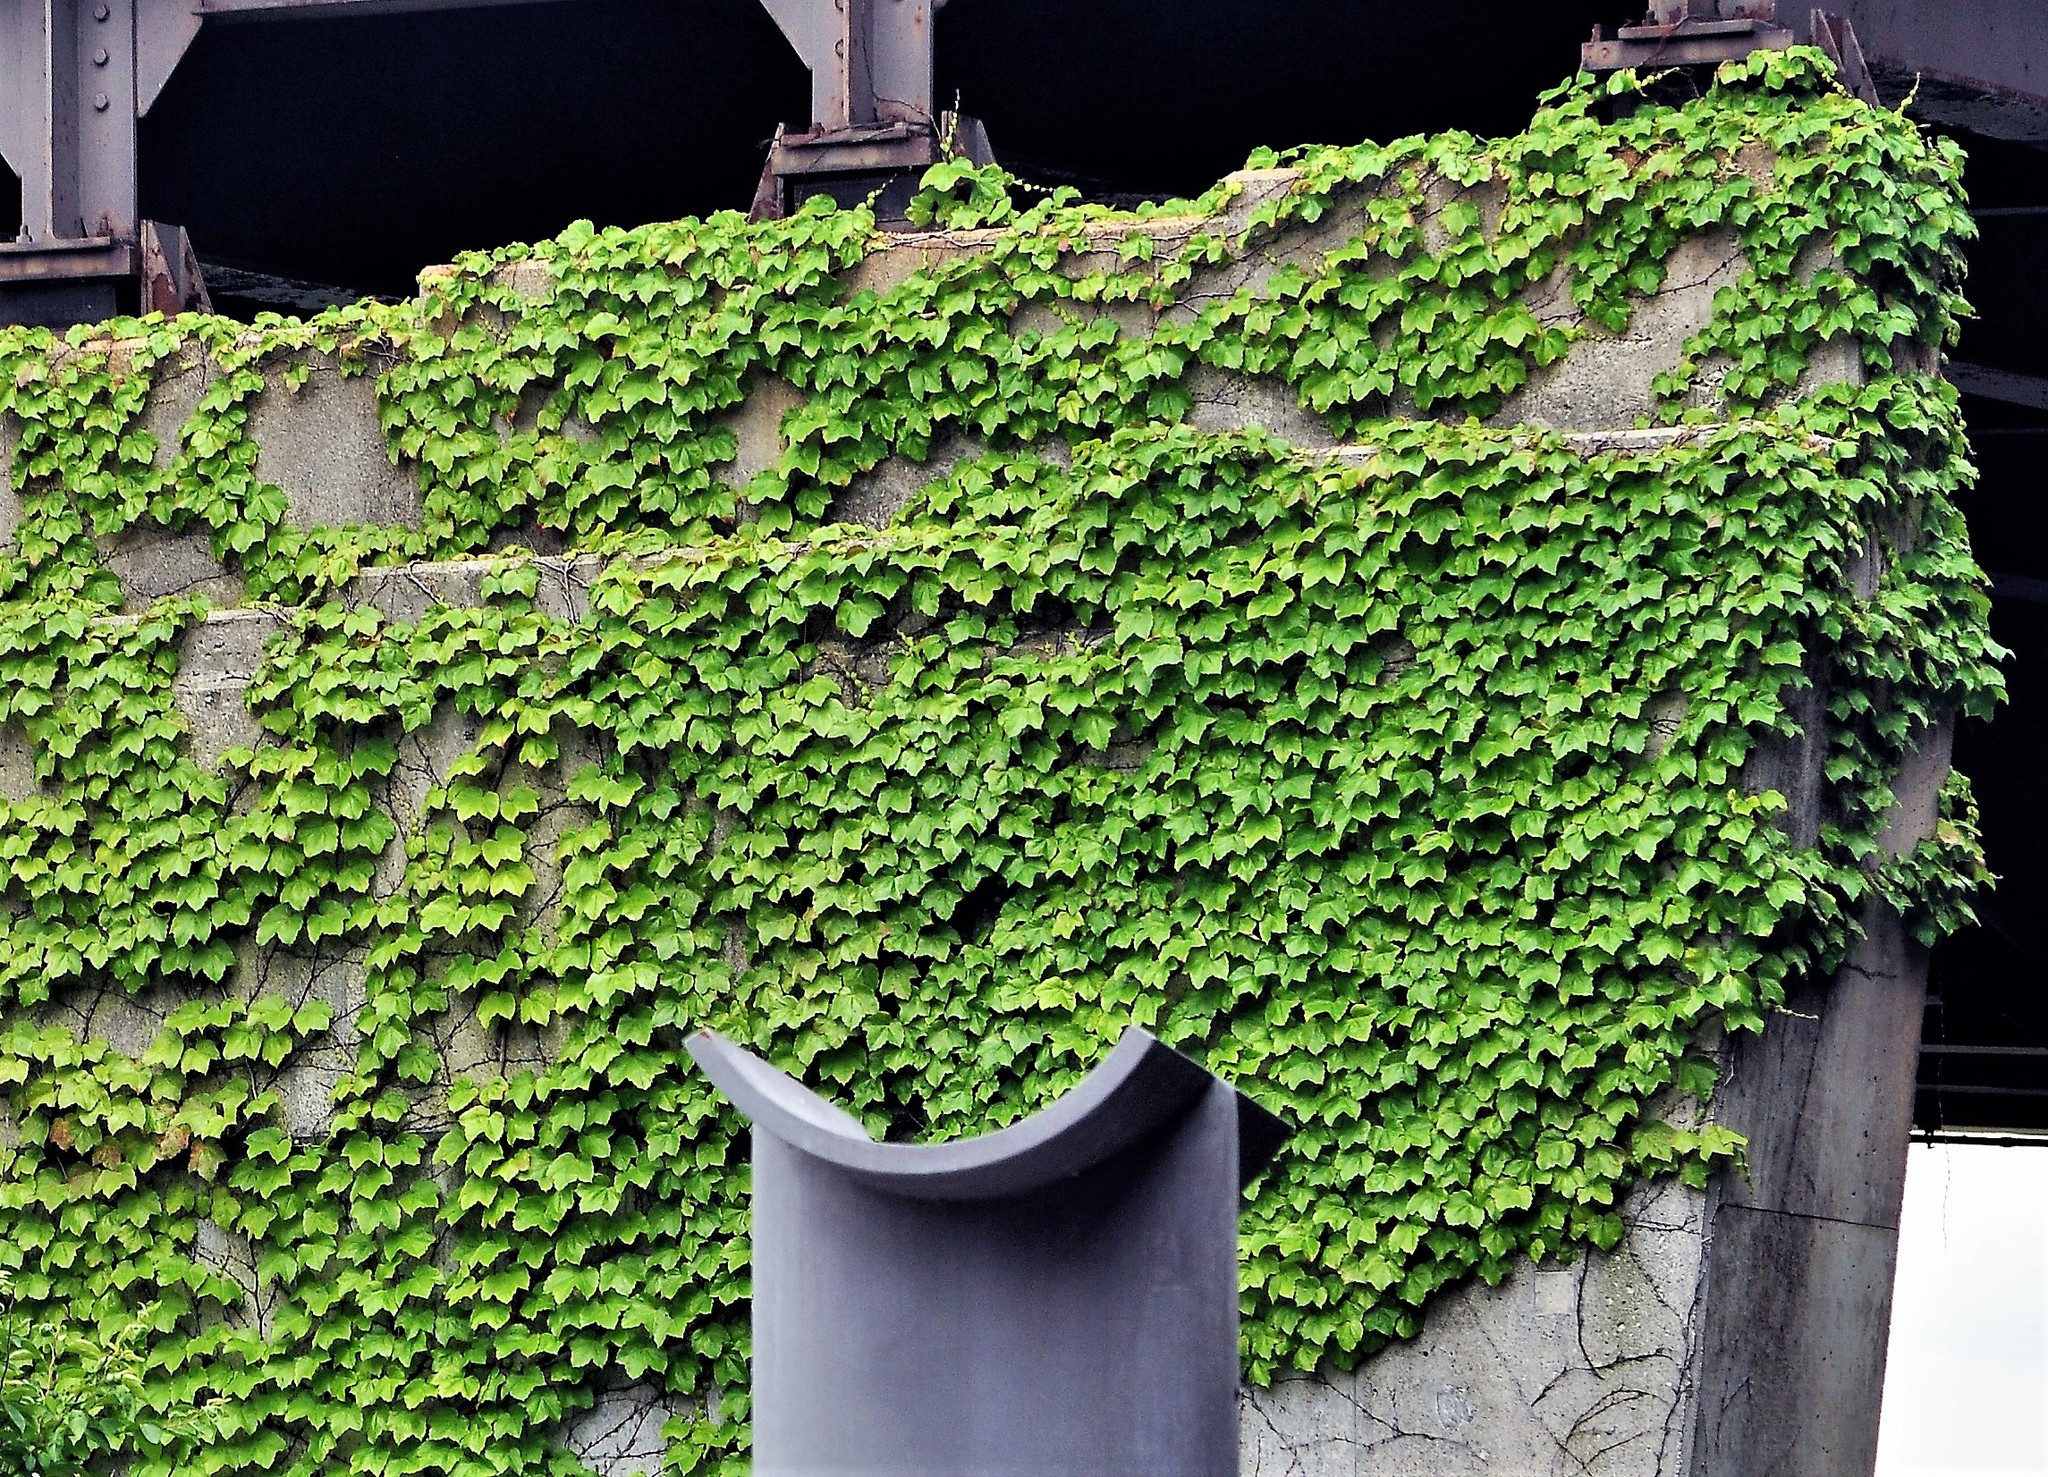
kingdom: Plantae
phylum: Tracheophyta
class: Magnoliopsida
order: Vitales
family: Vitaceae
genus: Parthenocissus
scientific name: Parthenocissus tricuspidata
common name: Boston ivy
